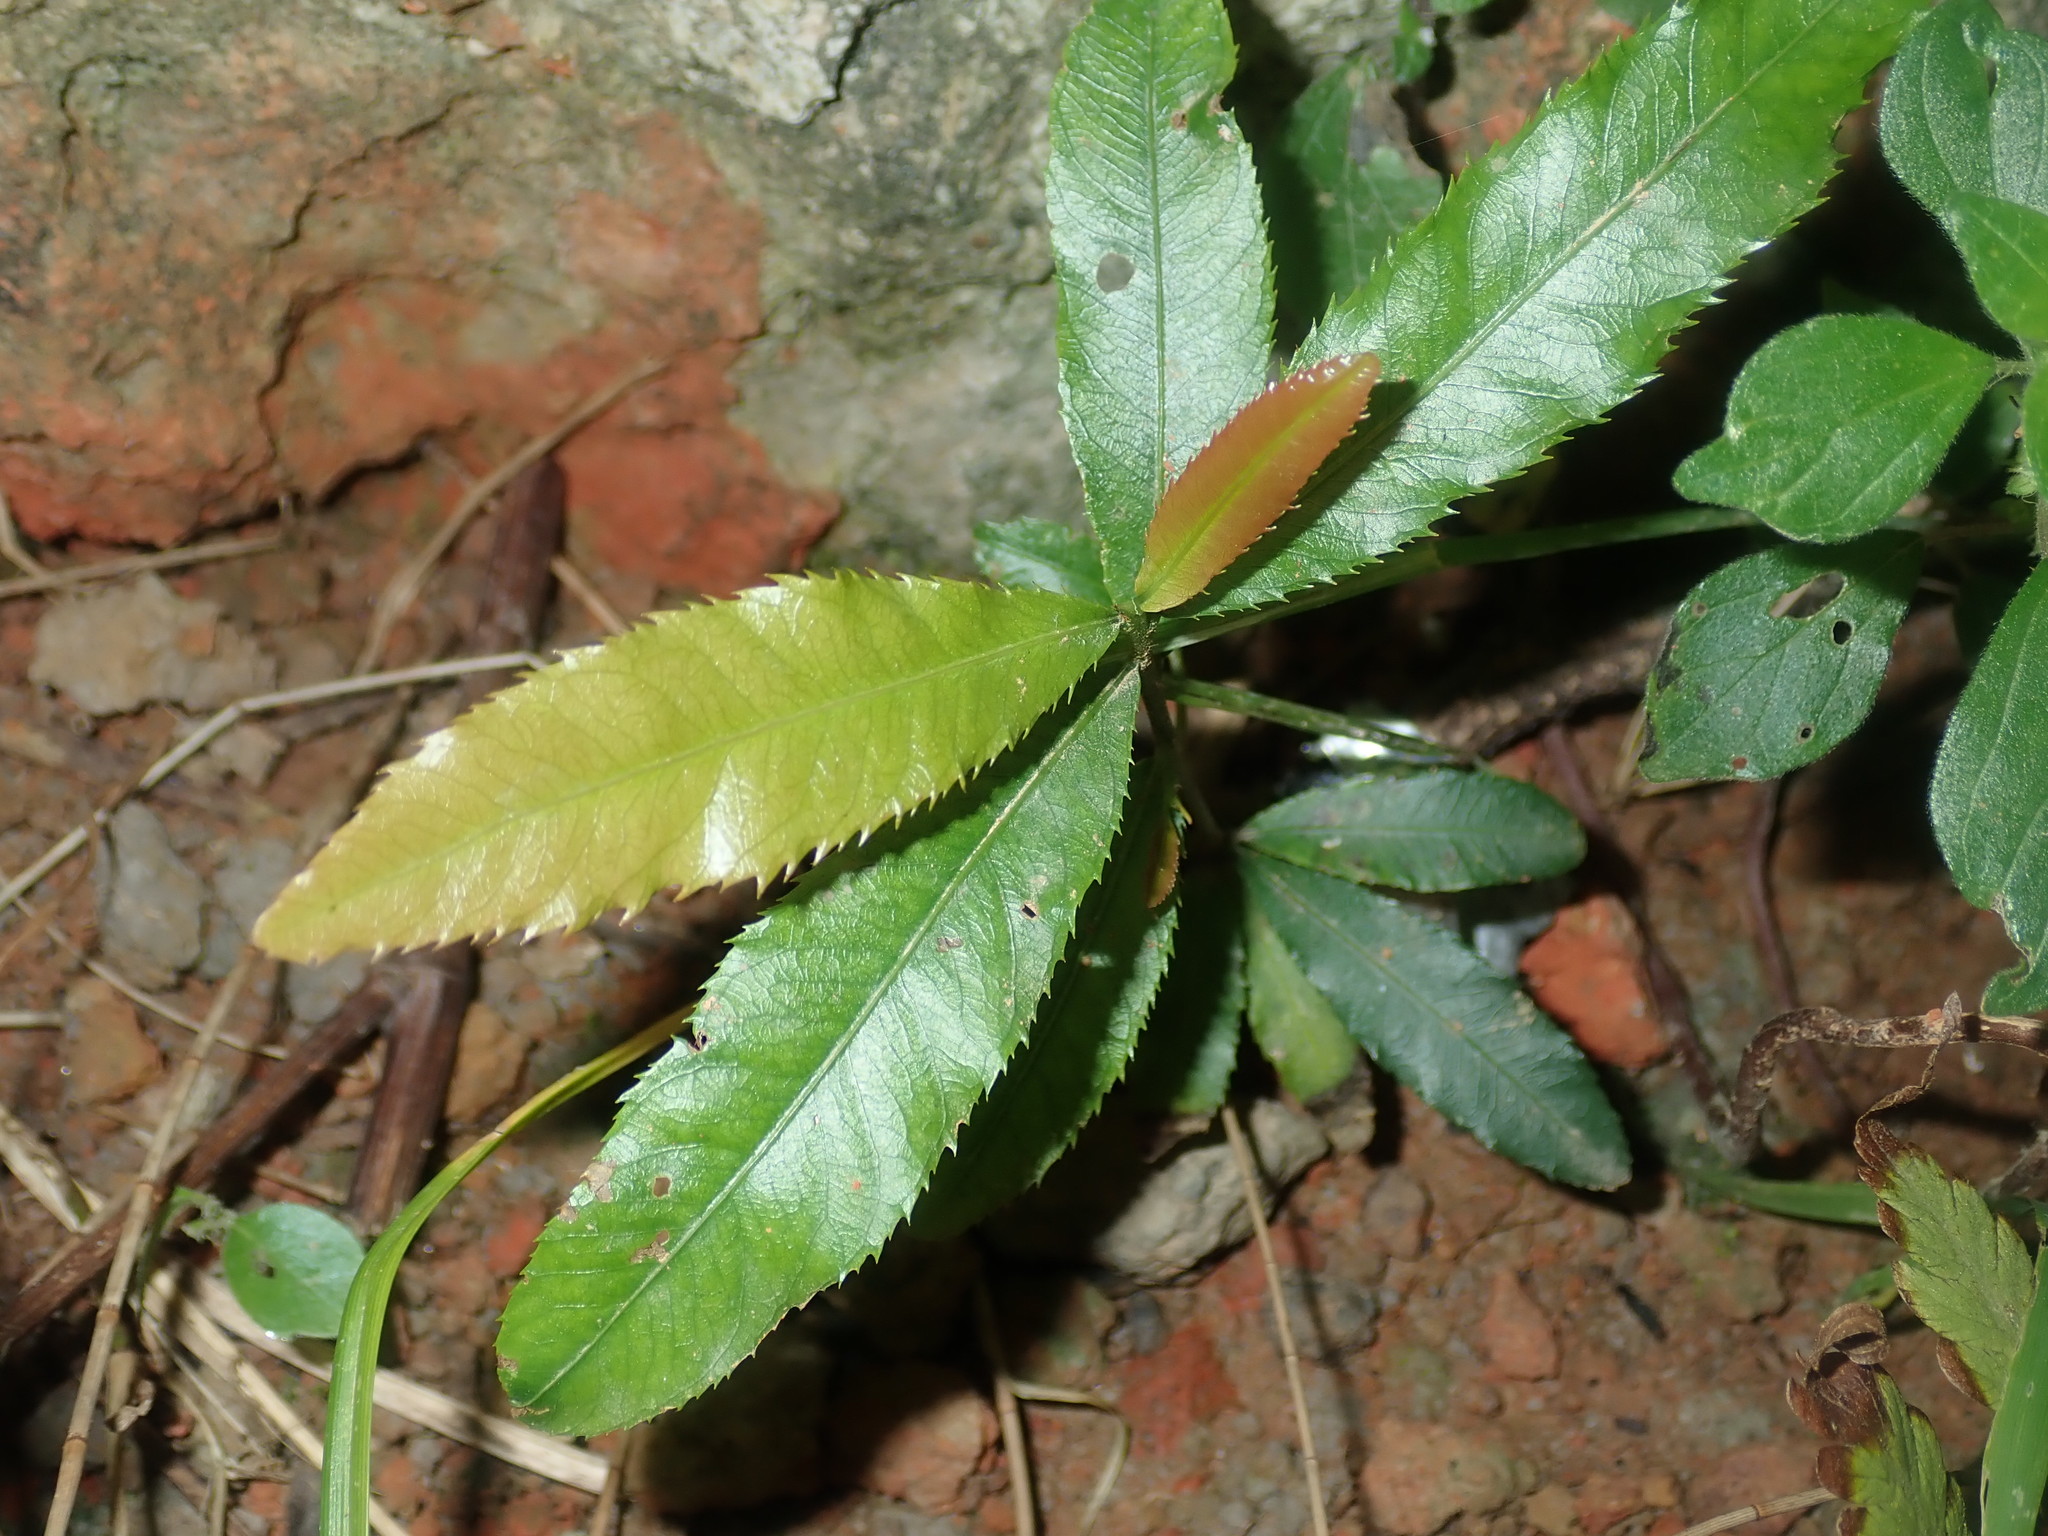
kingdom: Plantae
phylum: Tracheophyta
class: Magnoliopsida
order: Malpighiales
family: Ochnaceae
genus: Ochna
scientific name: Ochna serrulata
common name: Mickey mouse plant
